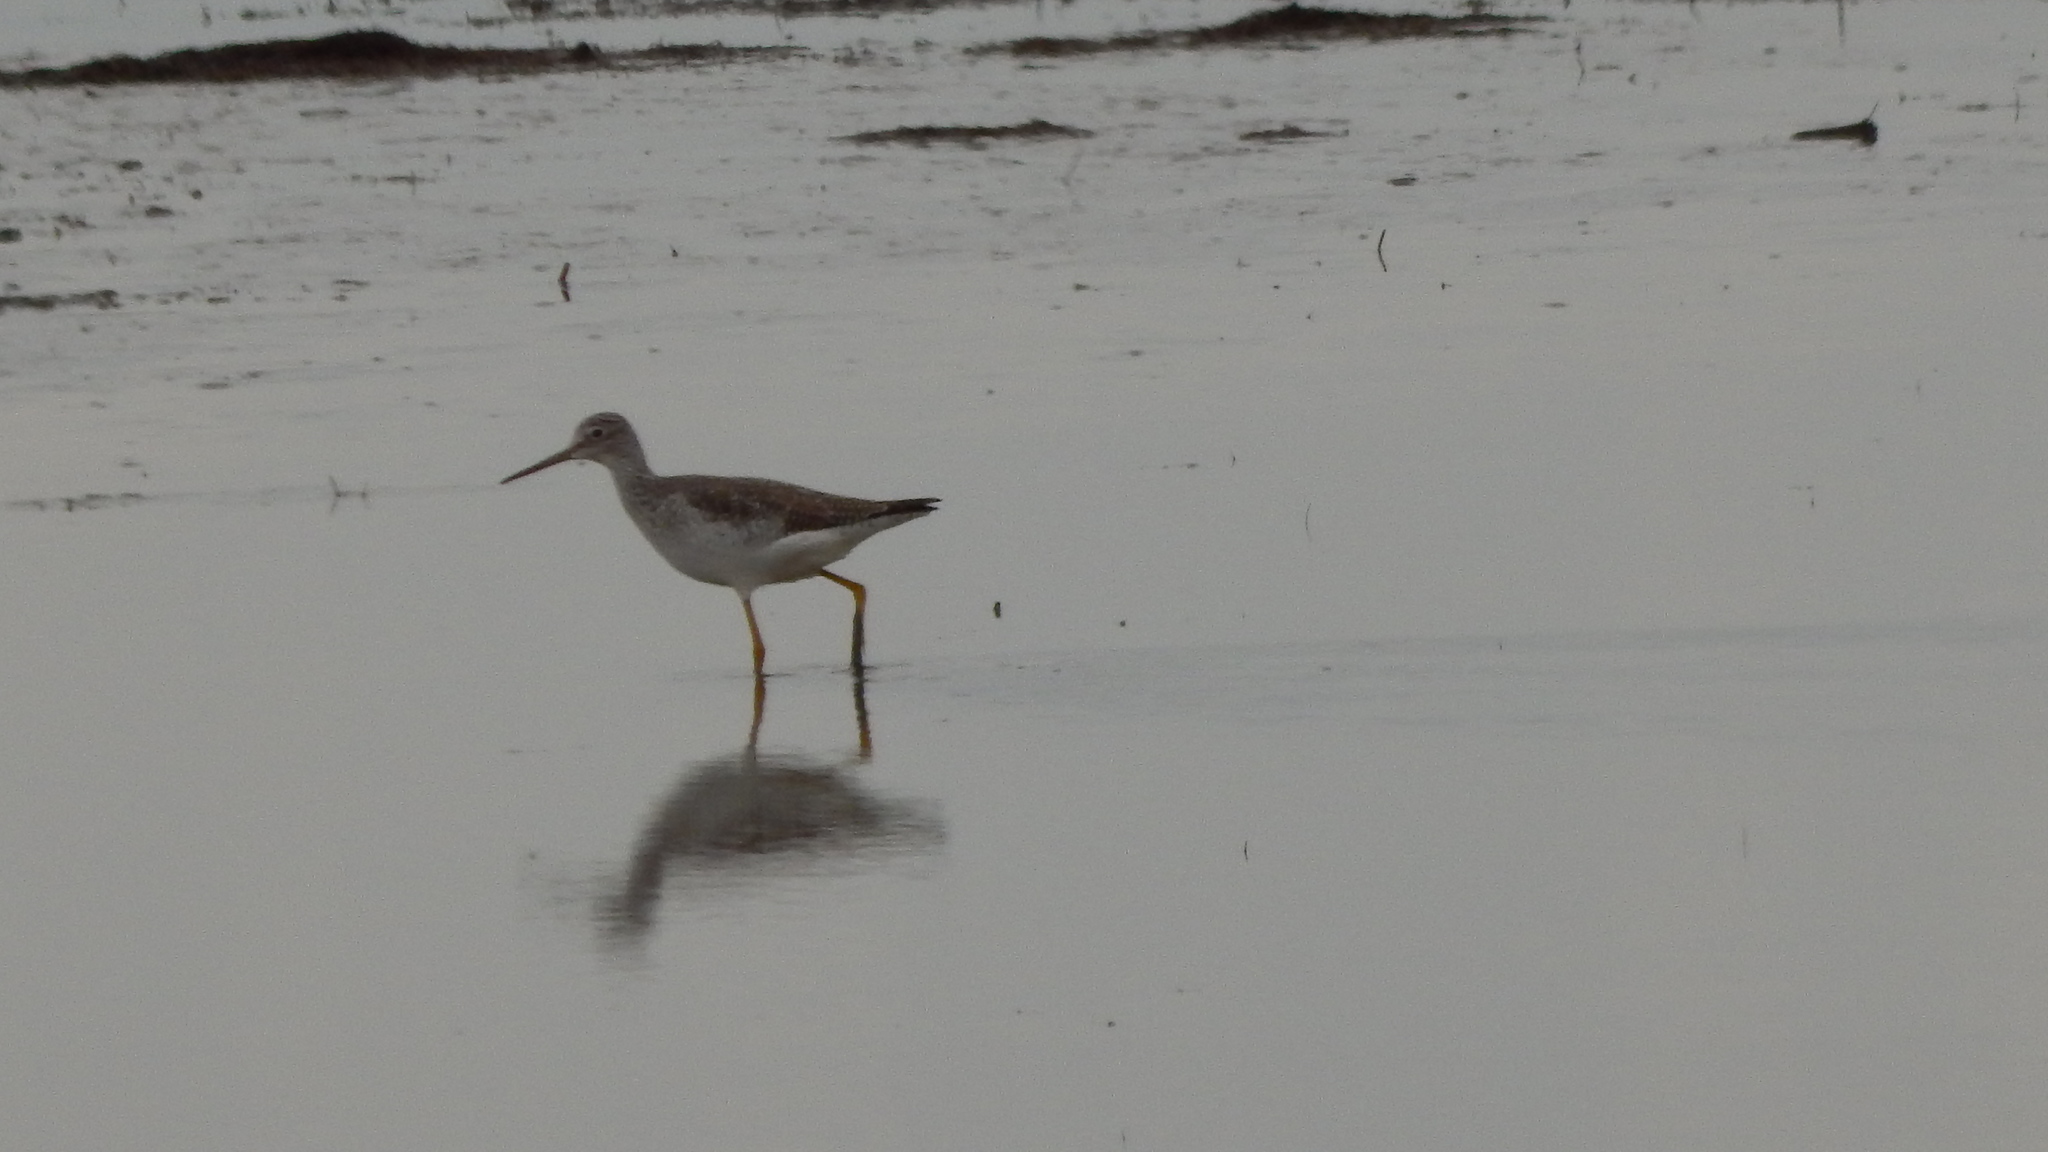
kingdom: Animalia
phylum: Chordata
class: Aves
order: Charadriiformes
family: Scolopacidae
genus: Tringa
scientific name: Tringa melanoleuca
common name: Greater yellowlegs
